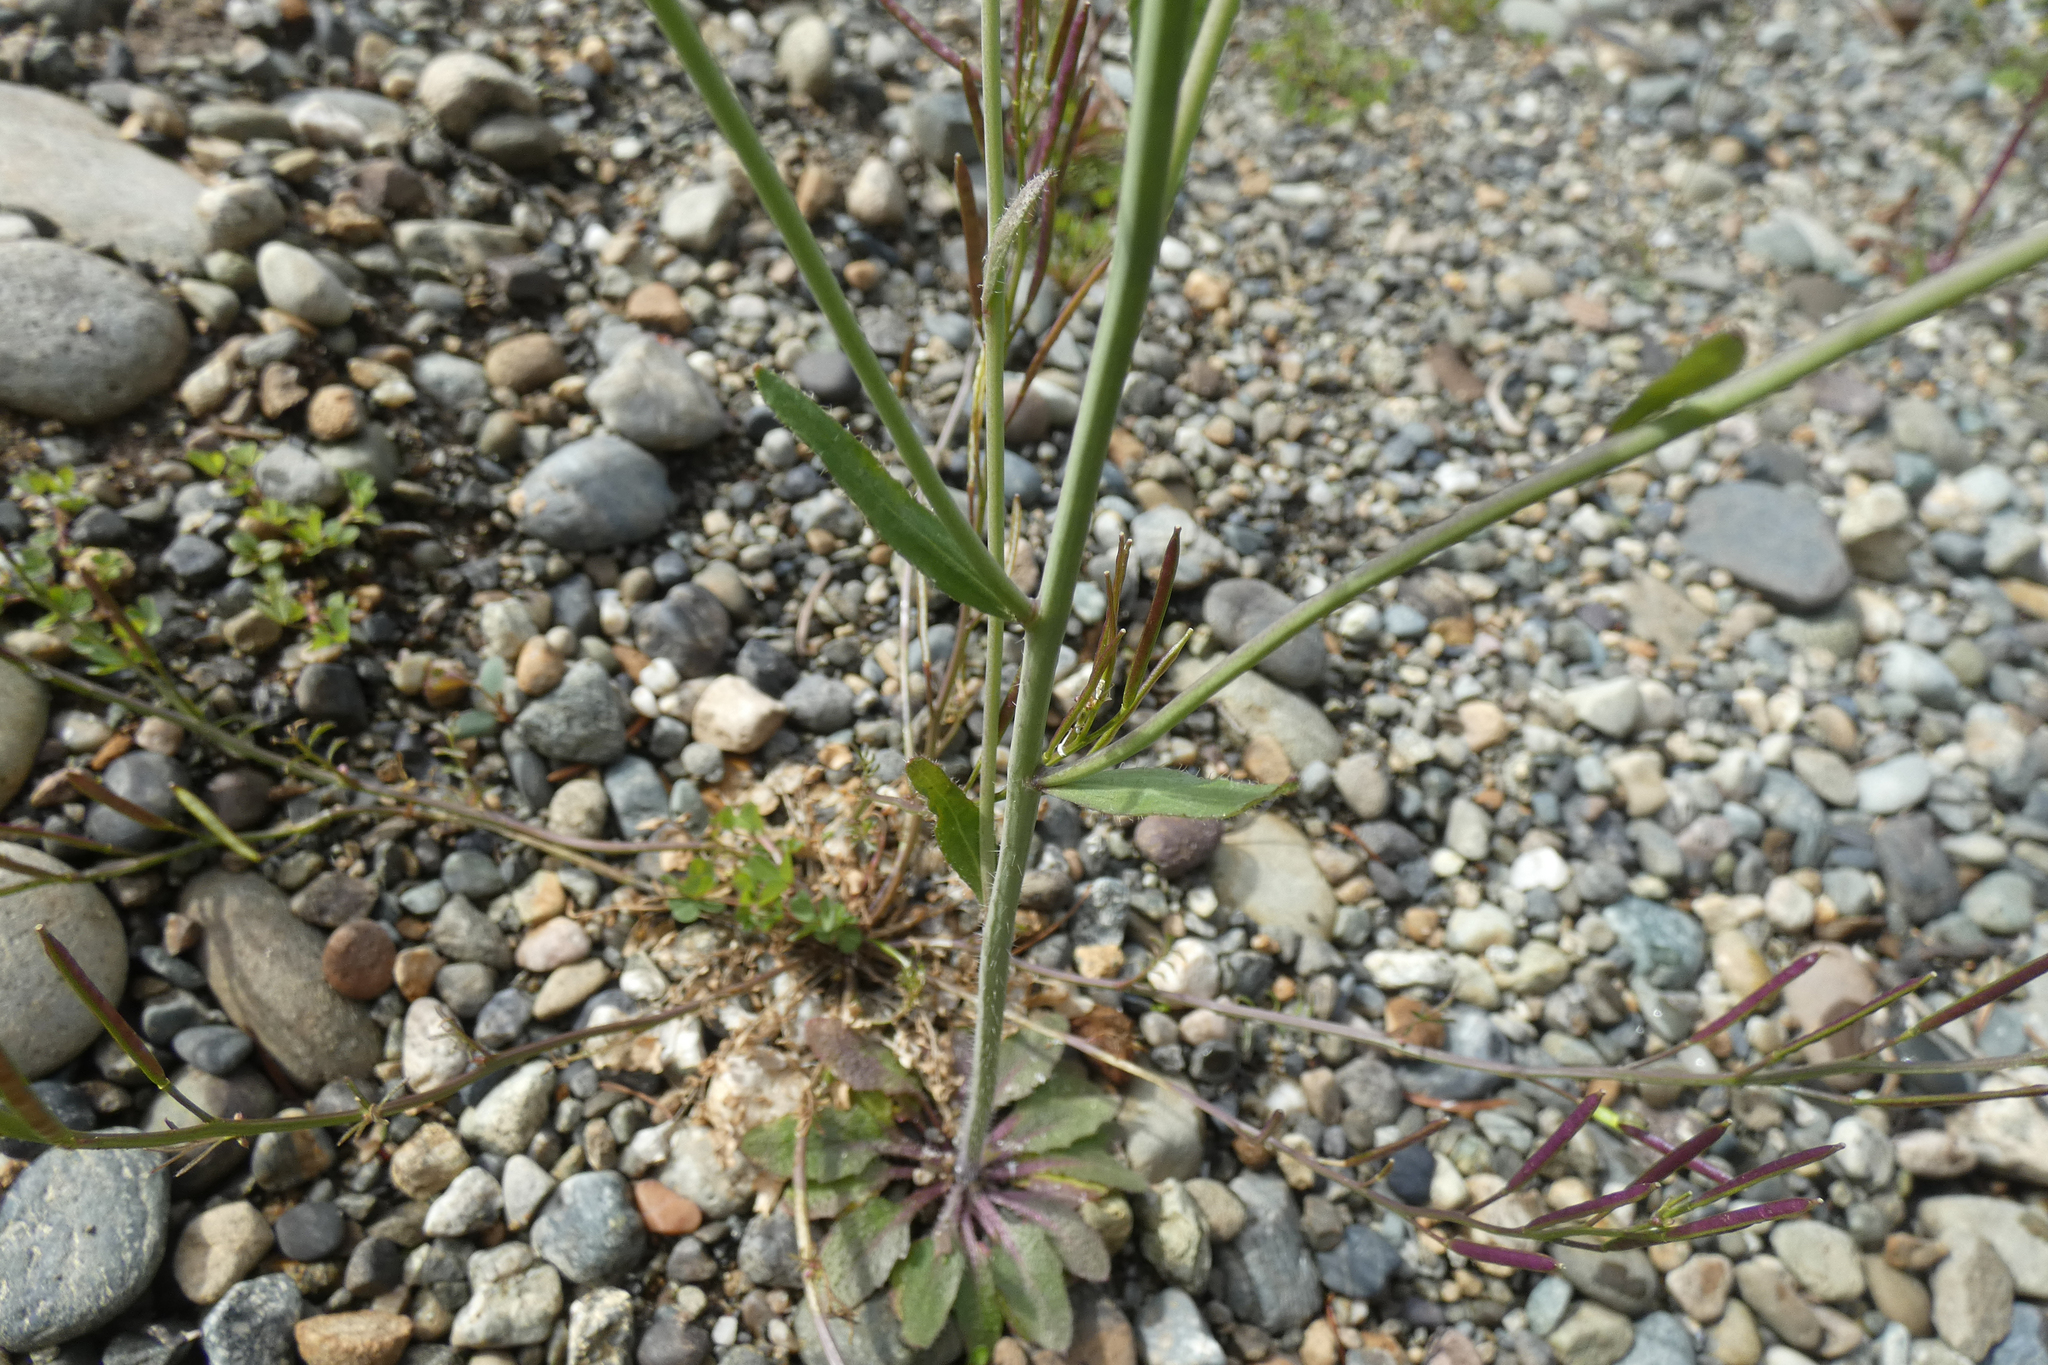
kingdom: Plantae
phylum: Tracheophyta
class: Magnoliopsida
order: Brassicales
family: Brassicaceae
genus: Arabidopsis
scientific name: Arabidopsis thaliana
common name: Thale cress
